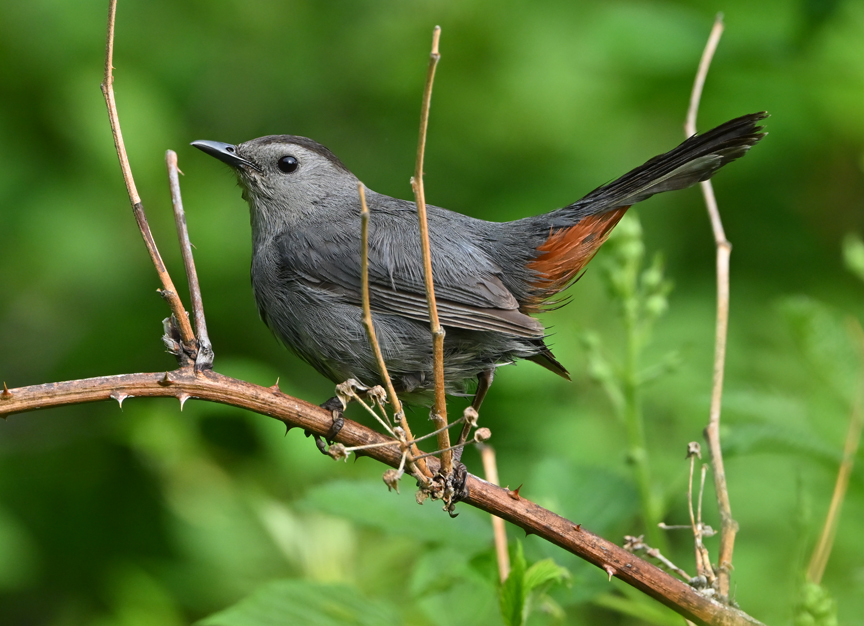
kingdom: Animalia
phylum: Chordata
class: Aves
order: Passeriformes
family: Mimidae
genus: Dumetella
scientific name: Dumetella carolinensis
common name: Gray catbird
